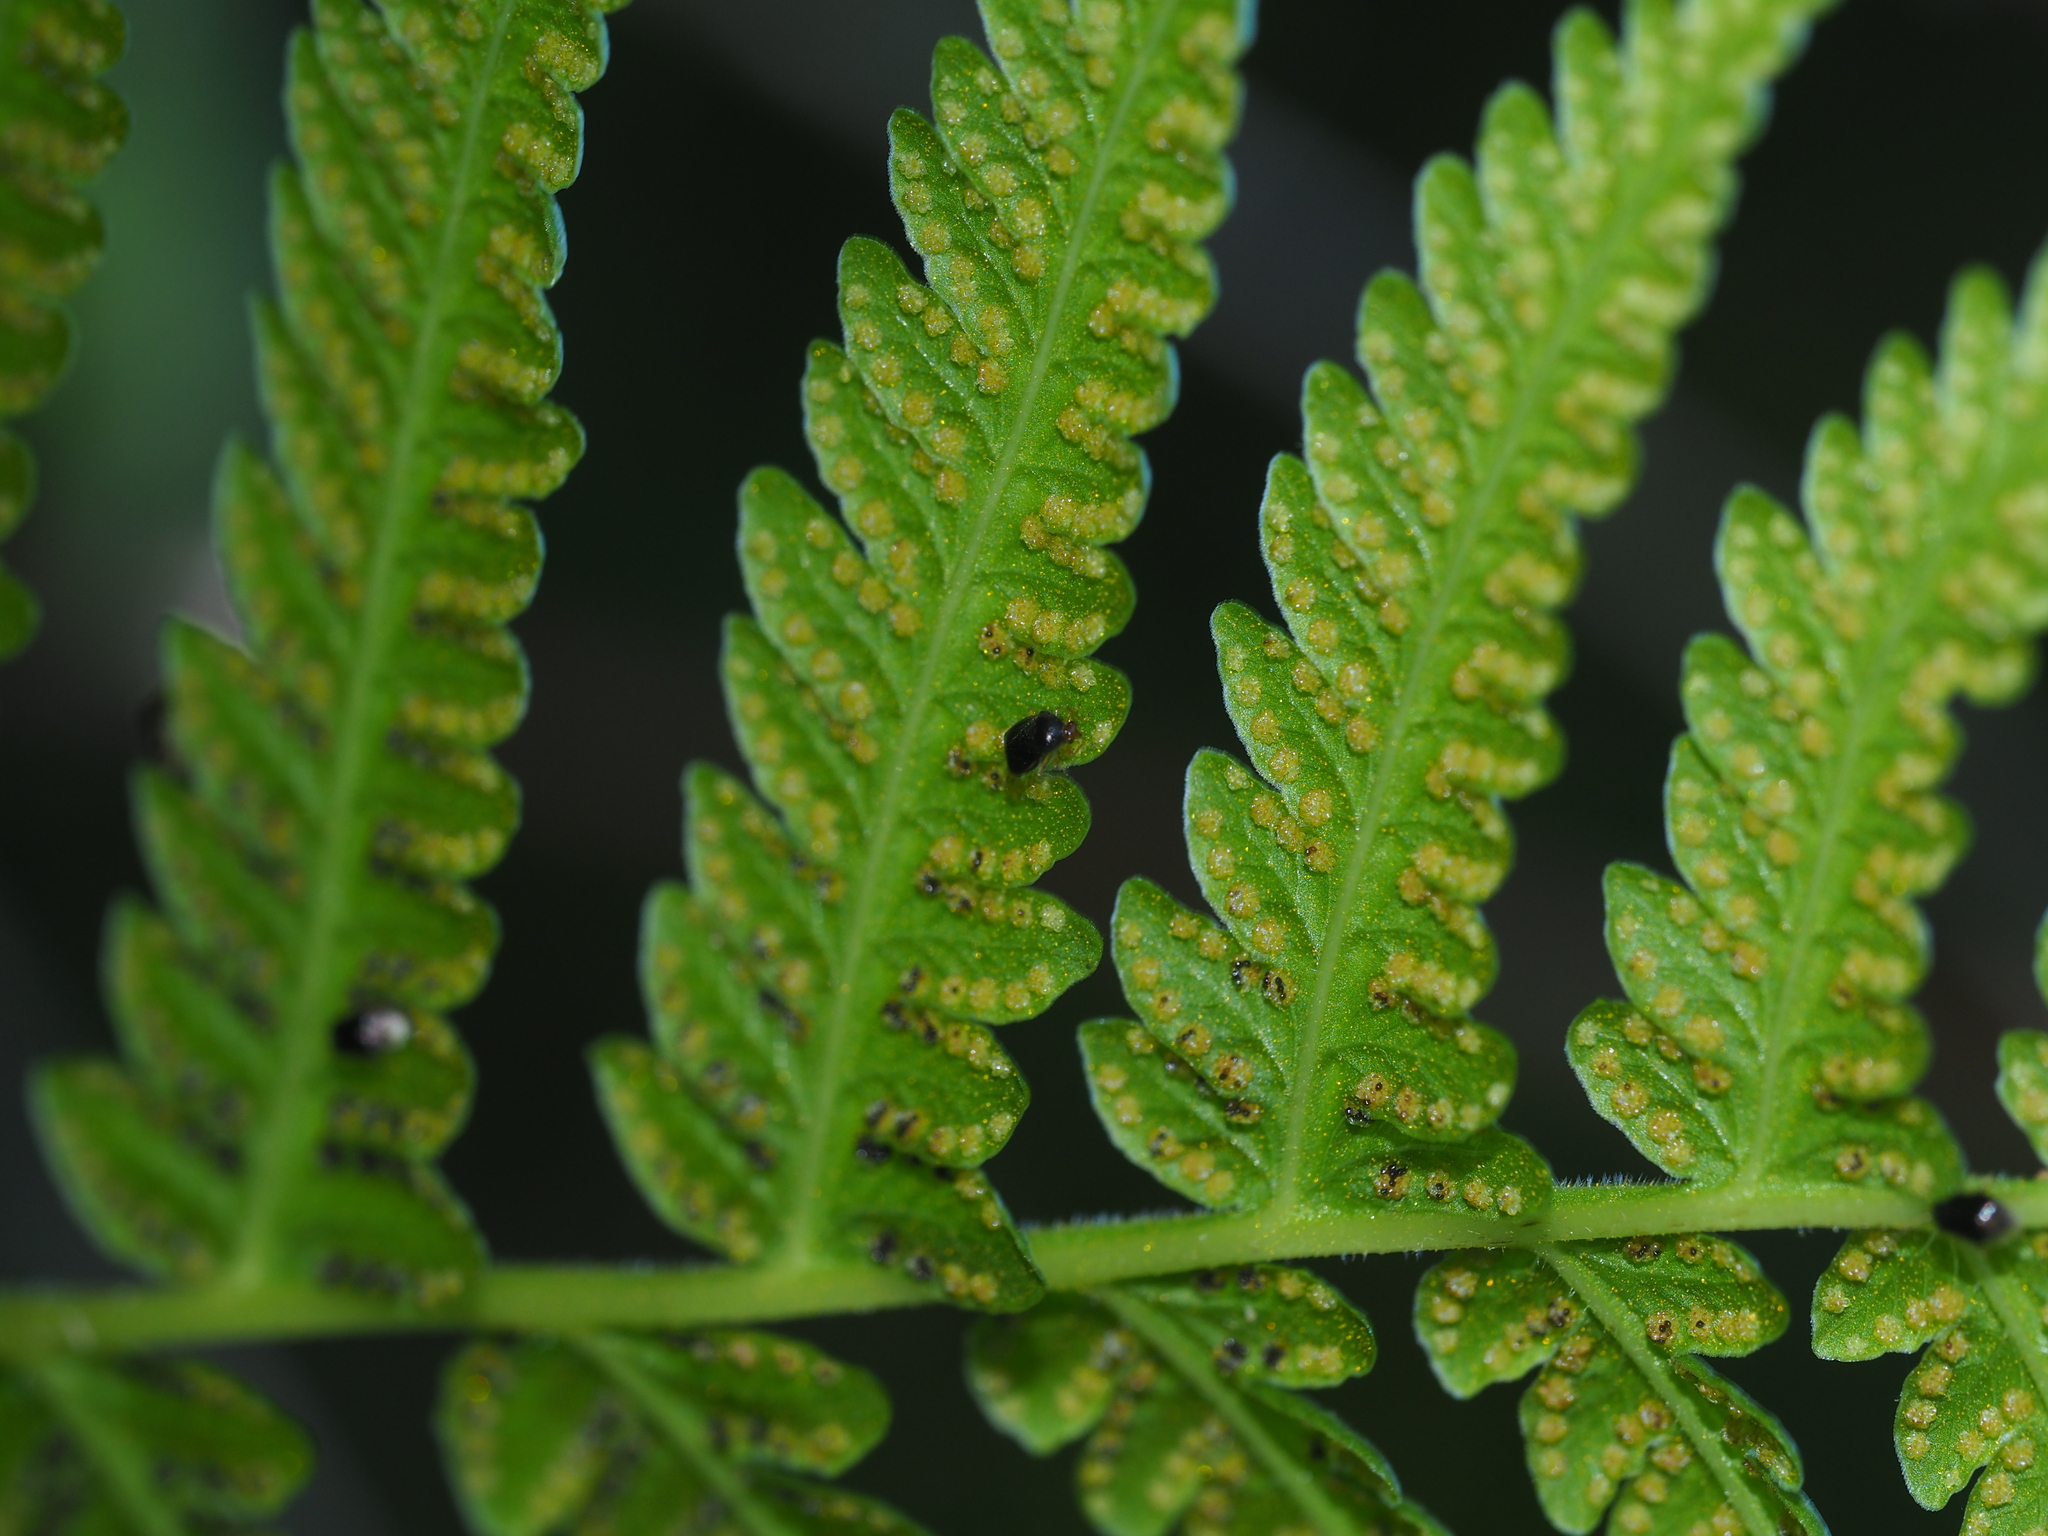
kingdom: Plantae
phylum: Tracheophyta
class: Polypodiopsida
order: Polypodiales
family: Thelypteridaceae
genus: Oreopteris
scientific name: Oreopteris limbosperma
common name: Lemon-scented fern
